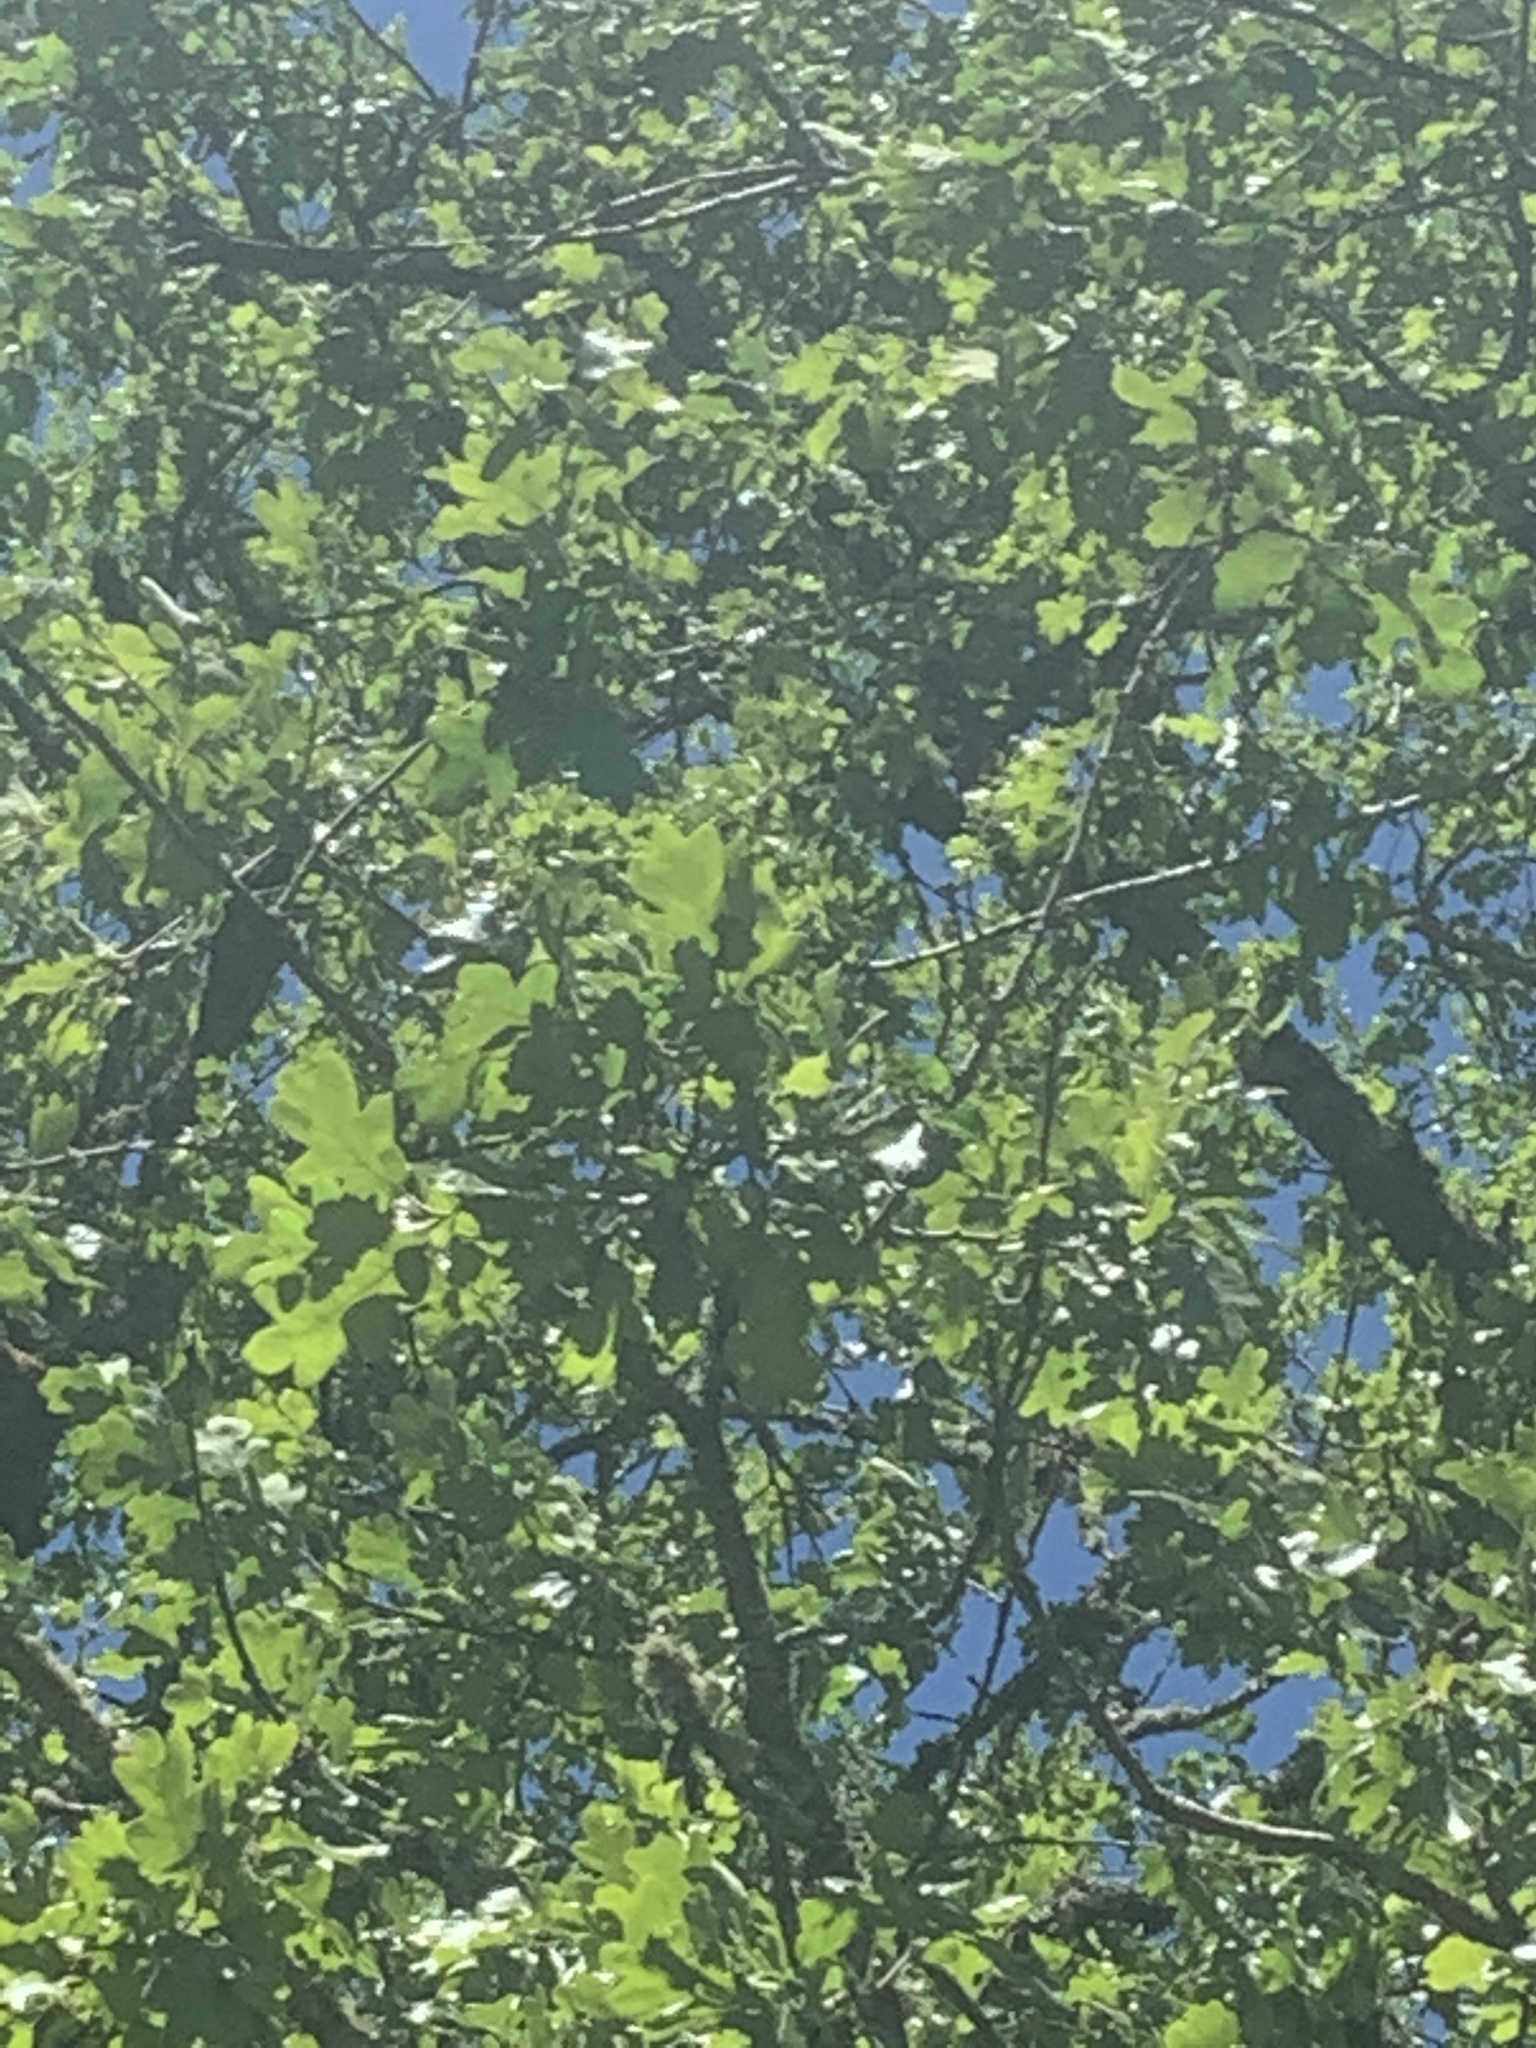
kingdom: Plantae
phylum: Tracheophyta
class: Magnoliopsida
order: Fagales
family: Fagaceae
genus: Quercus
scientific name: Quercus garryana
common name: Garry oak
